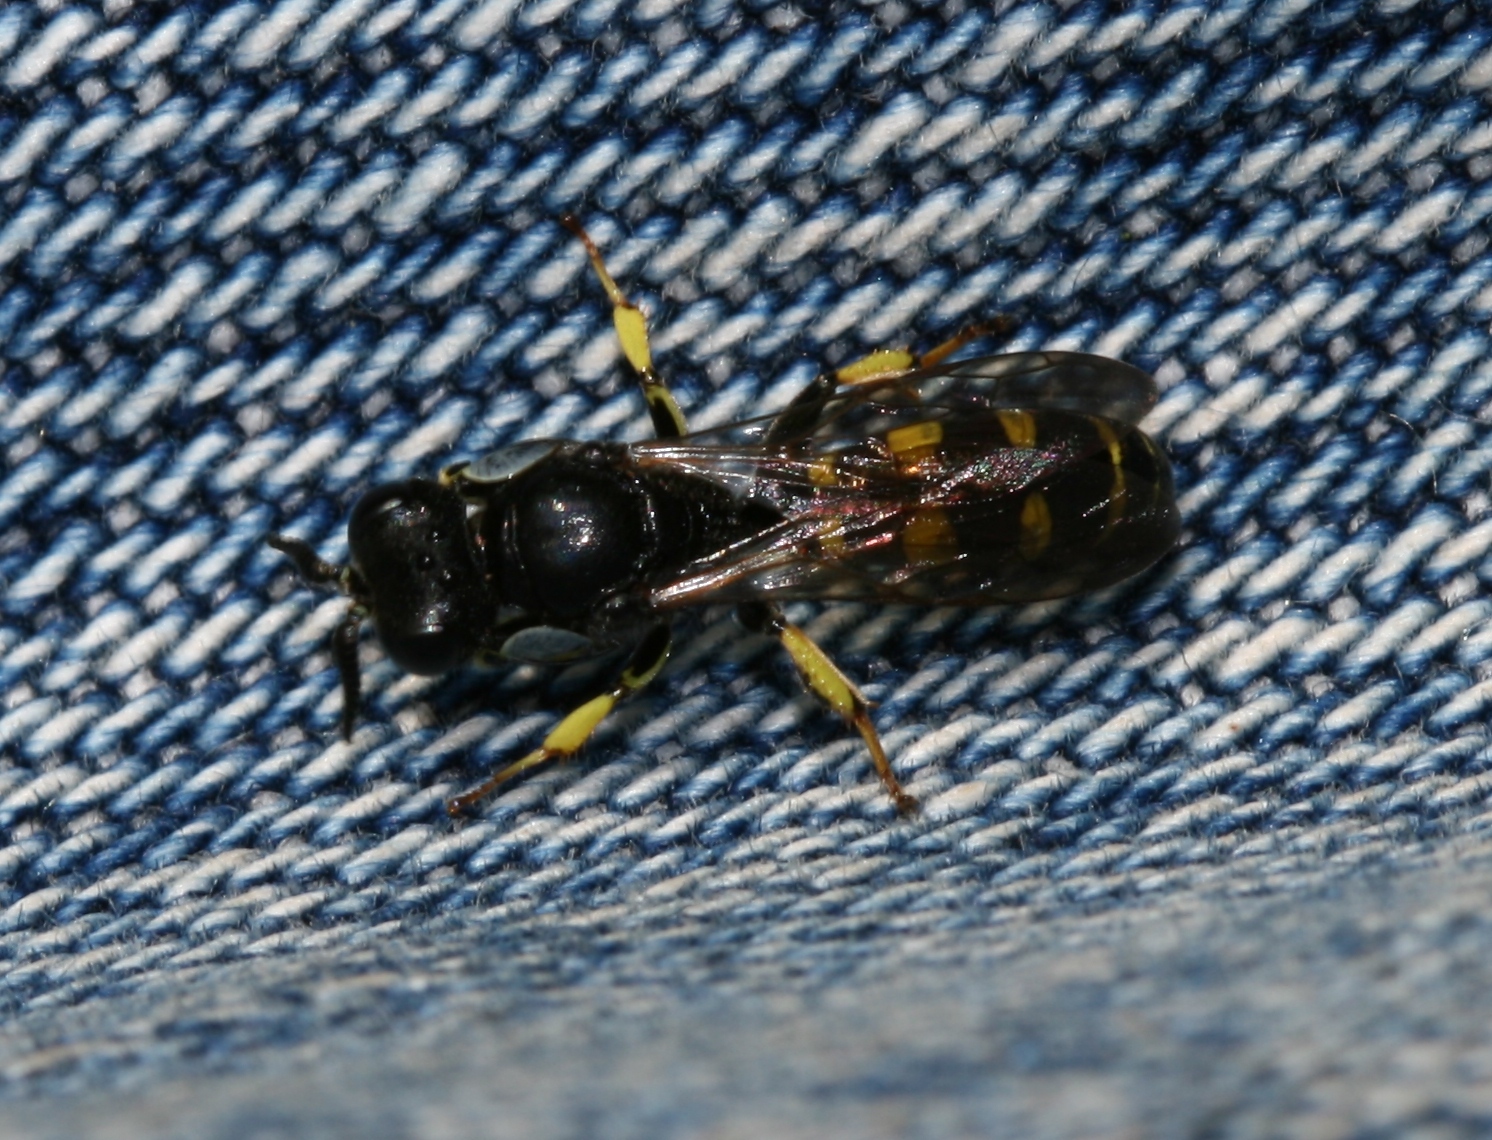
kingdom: Animalia
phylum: Arthropoda
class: Insecta
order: Hymenoptera
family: Crabronidae
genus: Crabro
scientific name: Crabro peltarius
